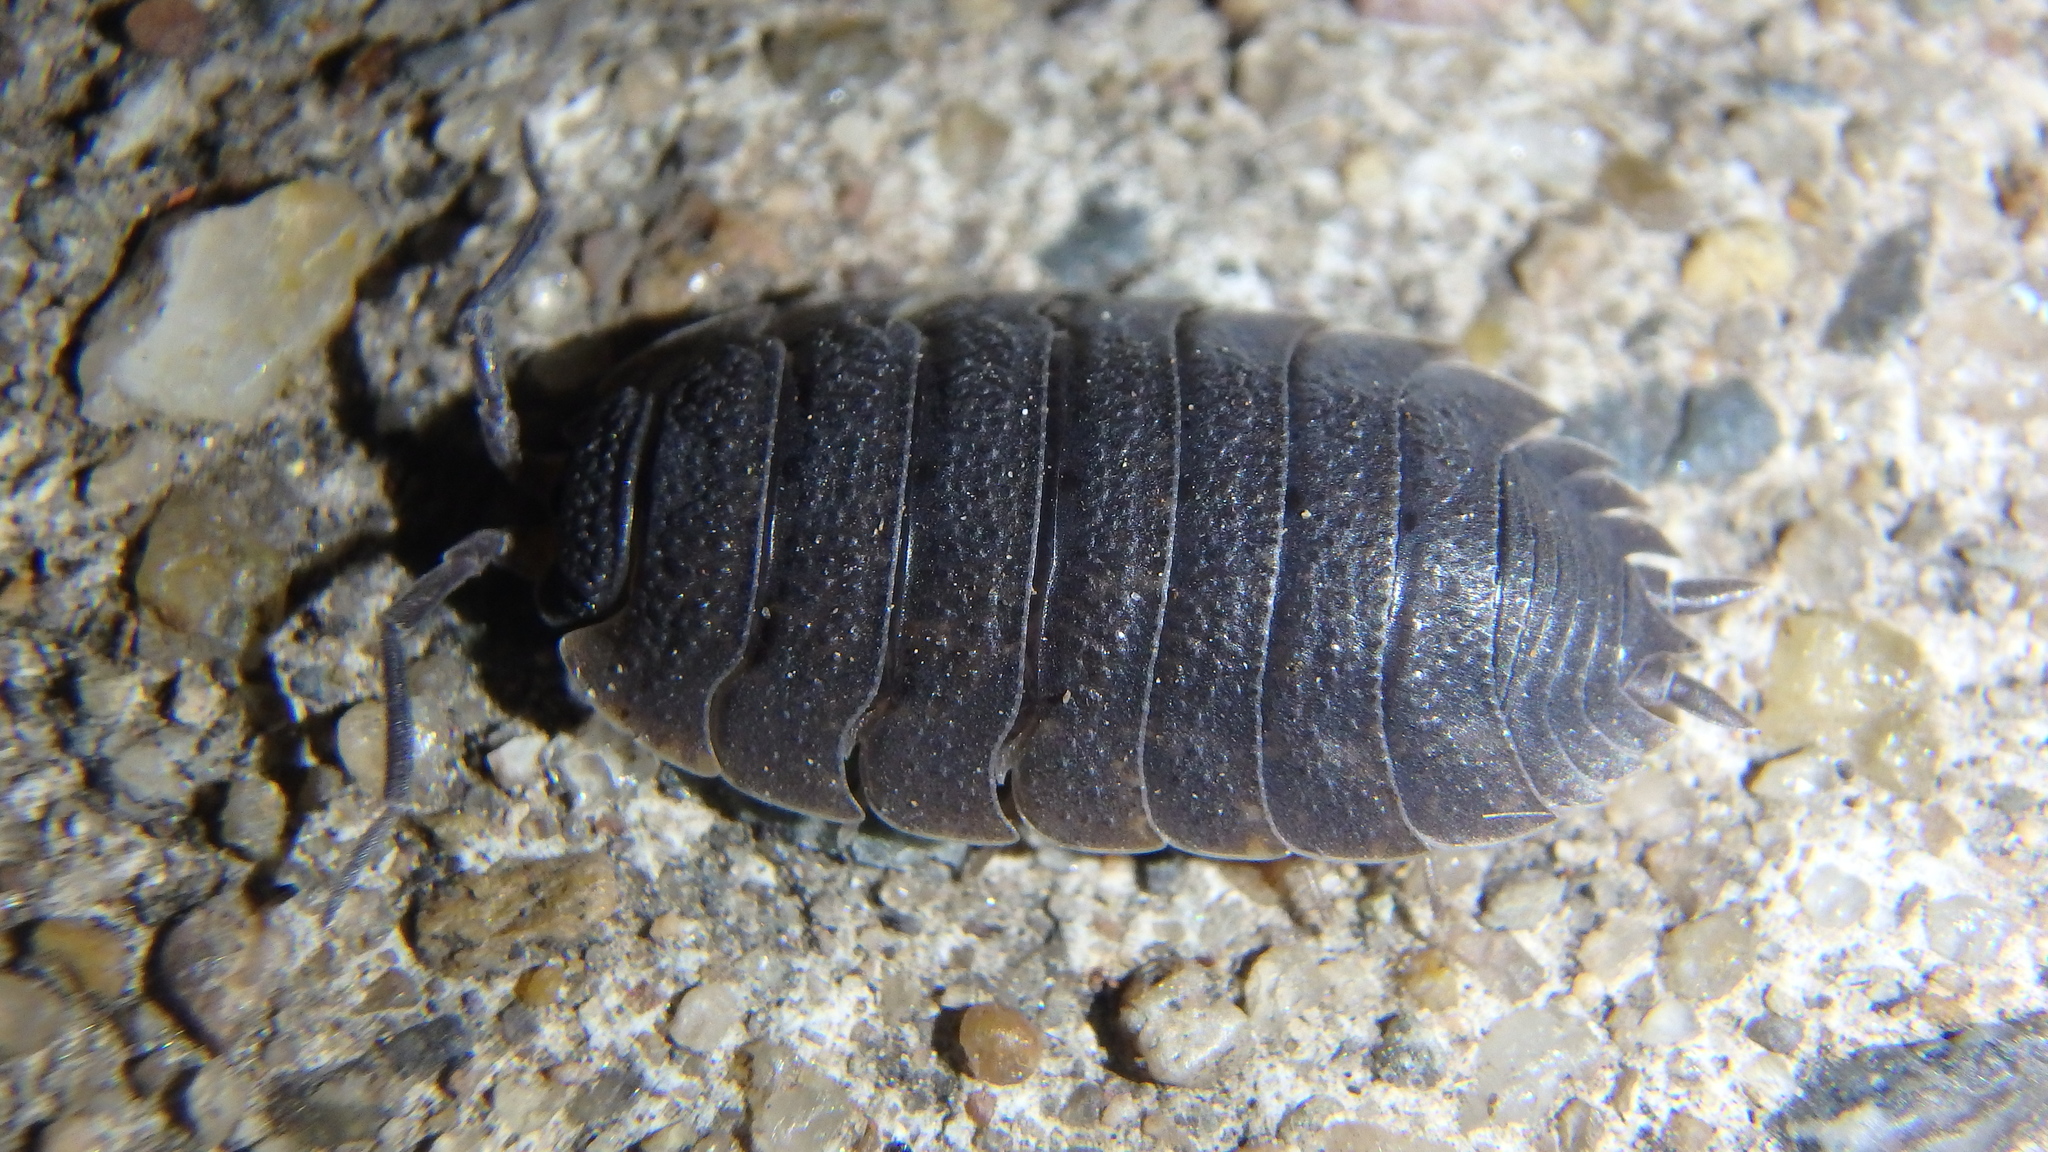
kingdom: Animalia
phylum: Arthropoda
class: Malacostraca
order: Isopoda
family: Porcellionidae
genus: Porcellio
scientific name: Porcellio scaber
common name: Common rough woodlouse
